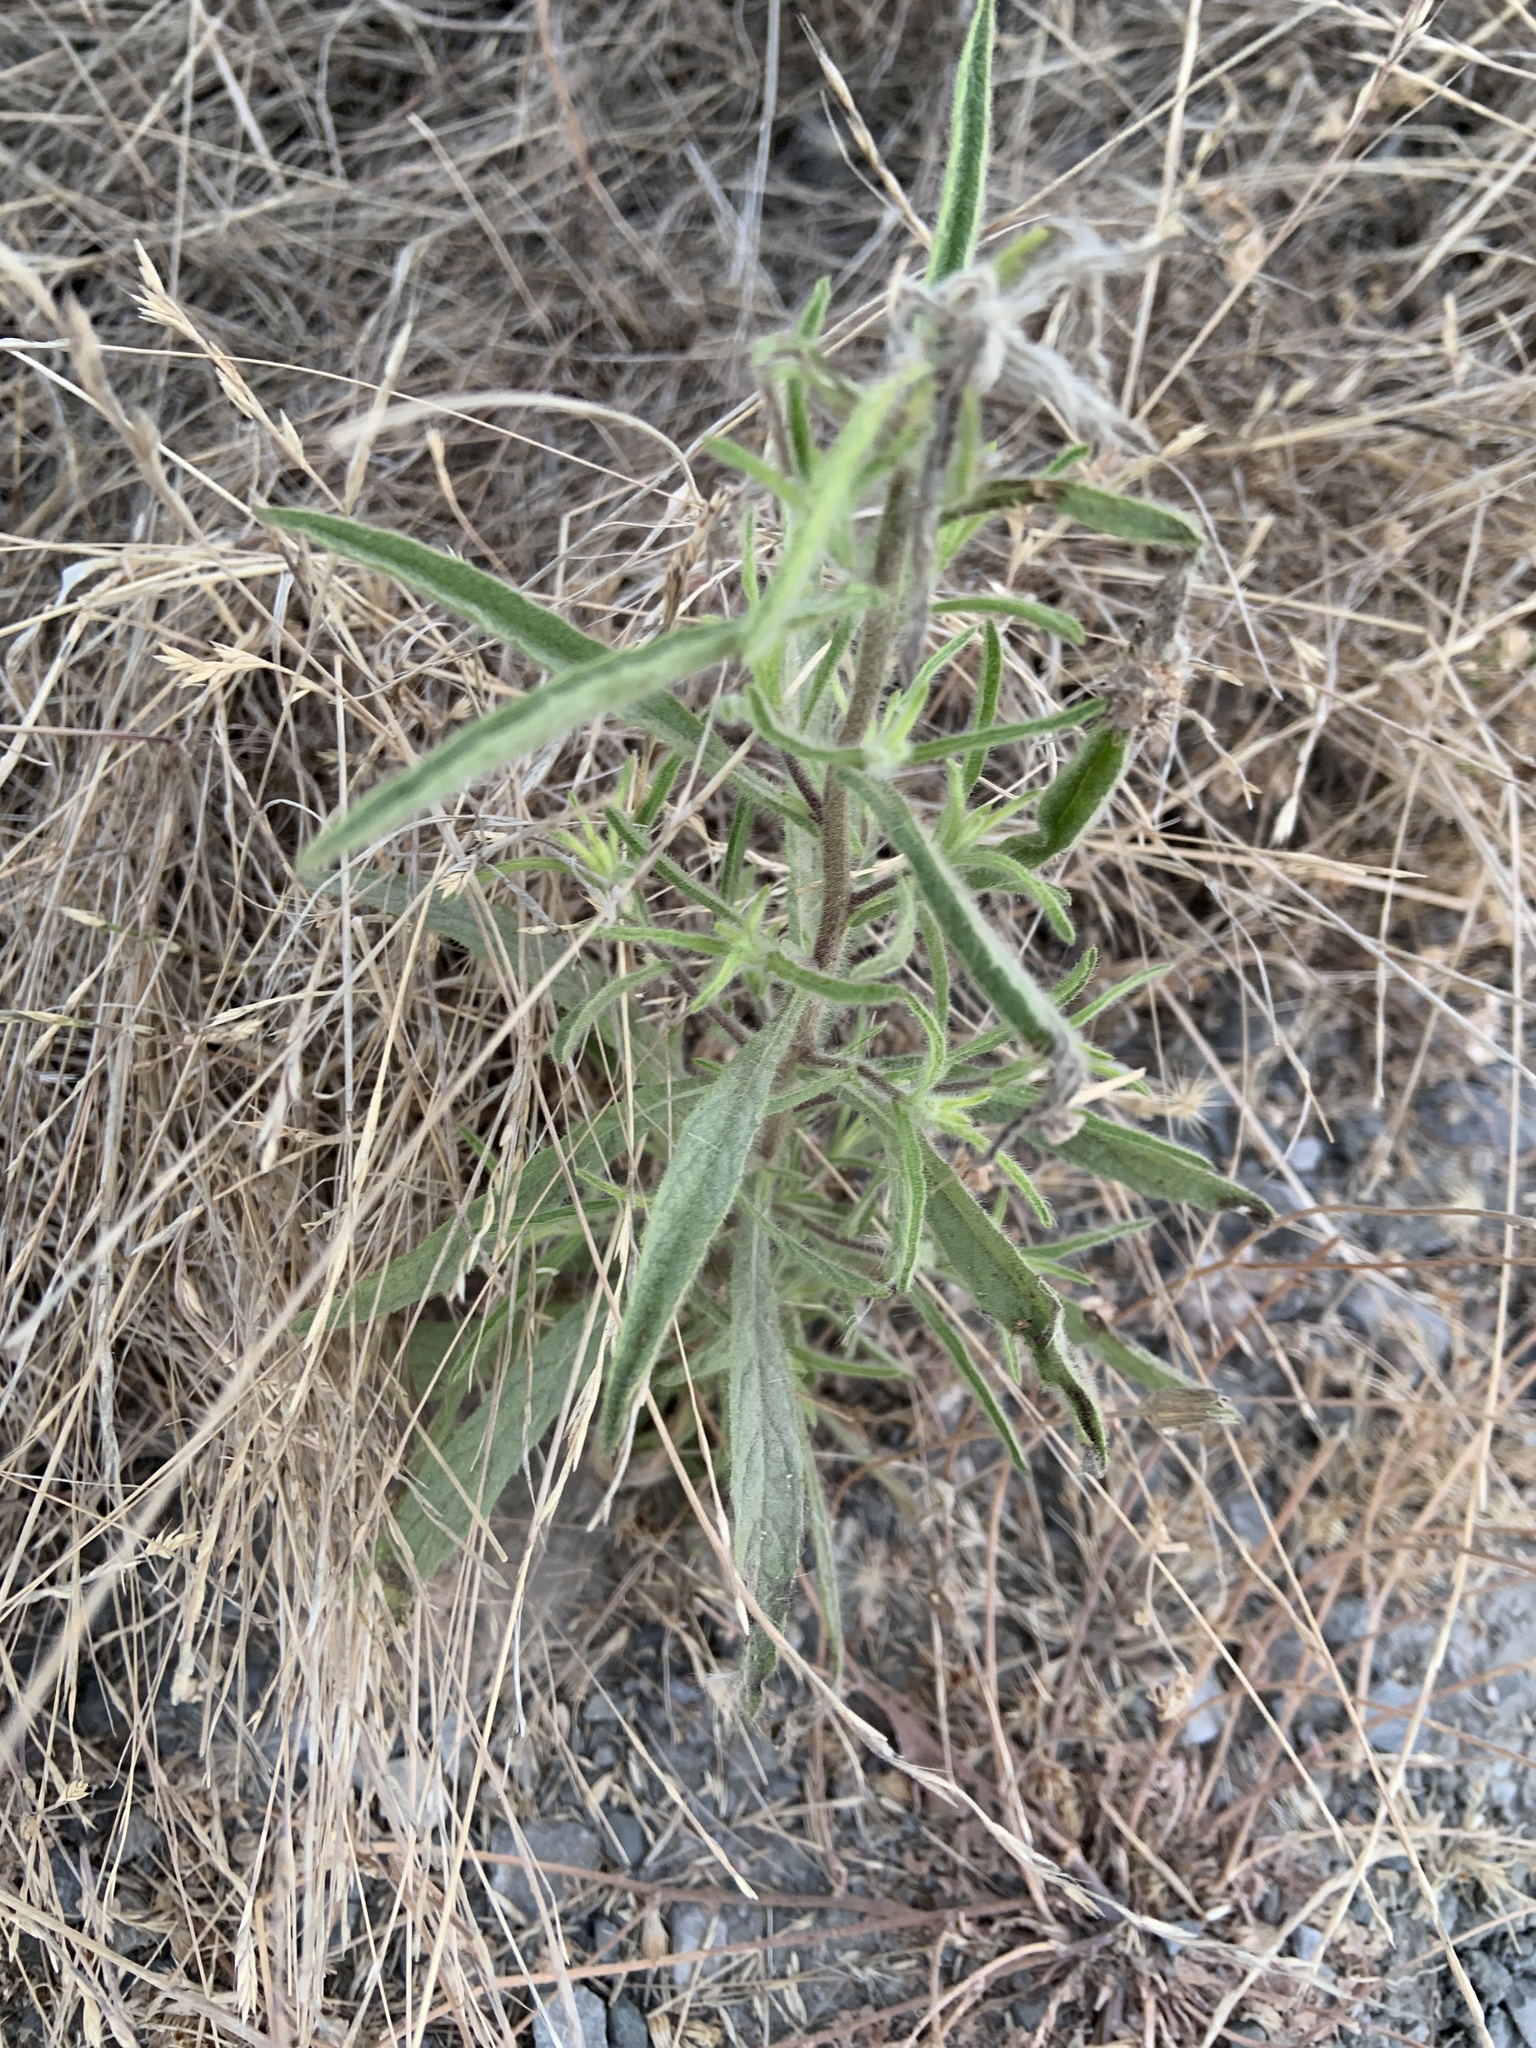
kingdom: Plantae
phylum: Tracheophyta
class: Magnoliopsida
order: Asterales
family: Asteraceae
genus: Dittrichia
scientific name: Dittrichia graveolens
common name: Stinking fleabane
